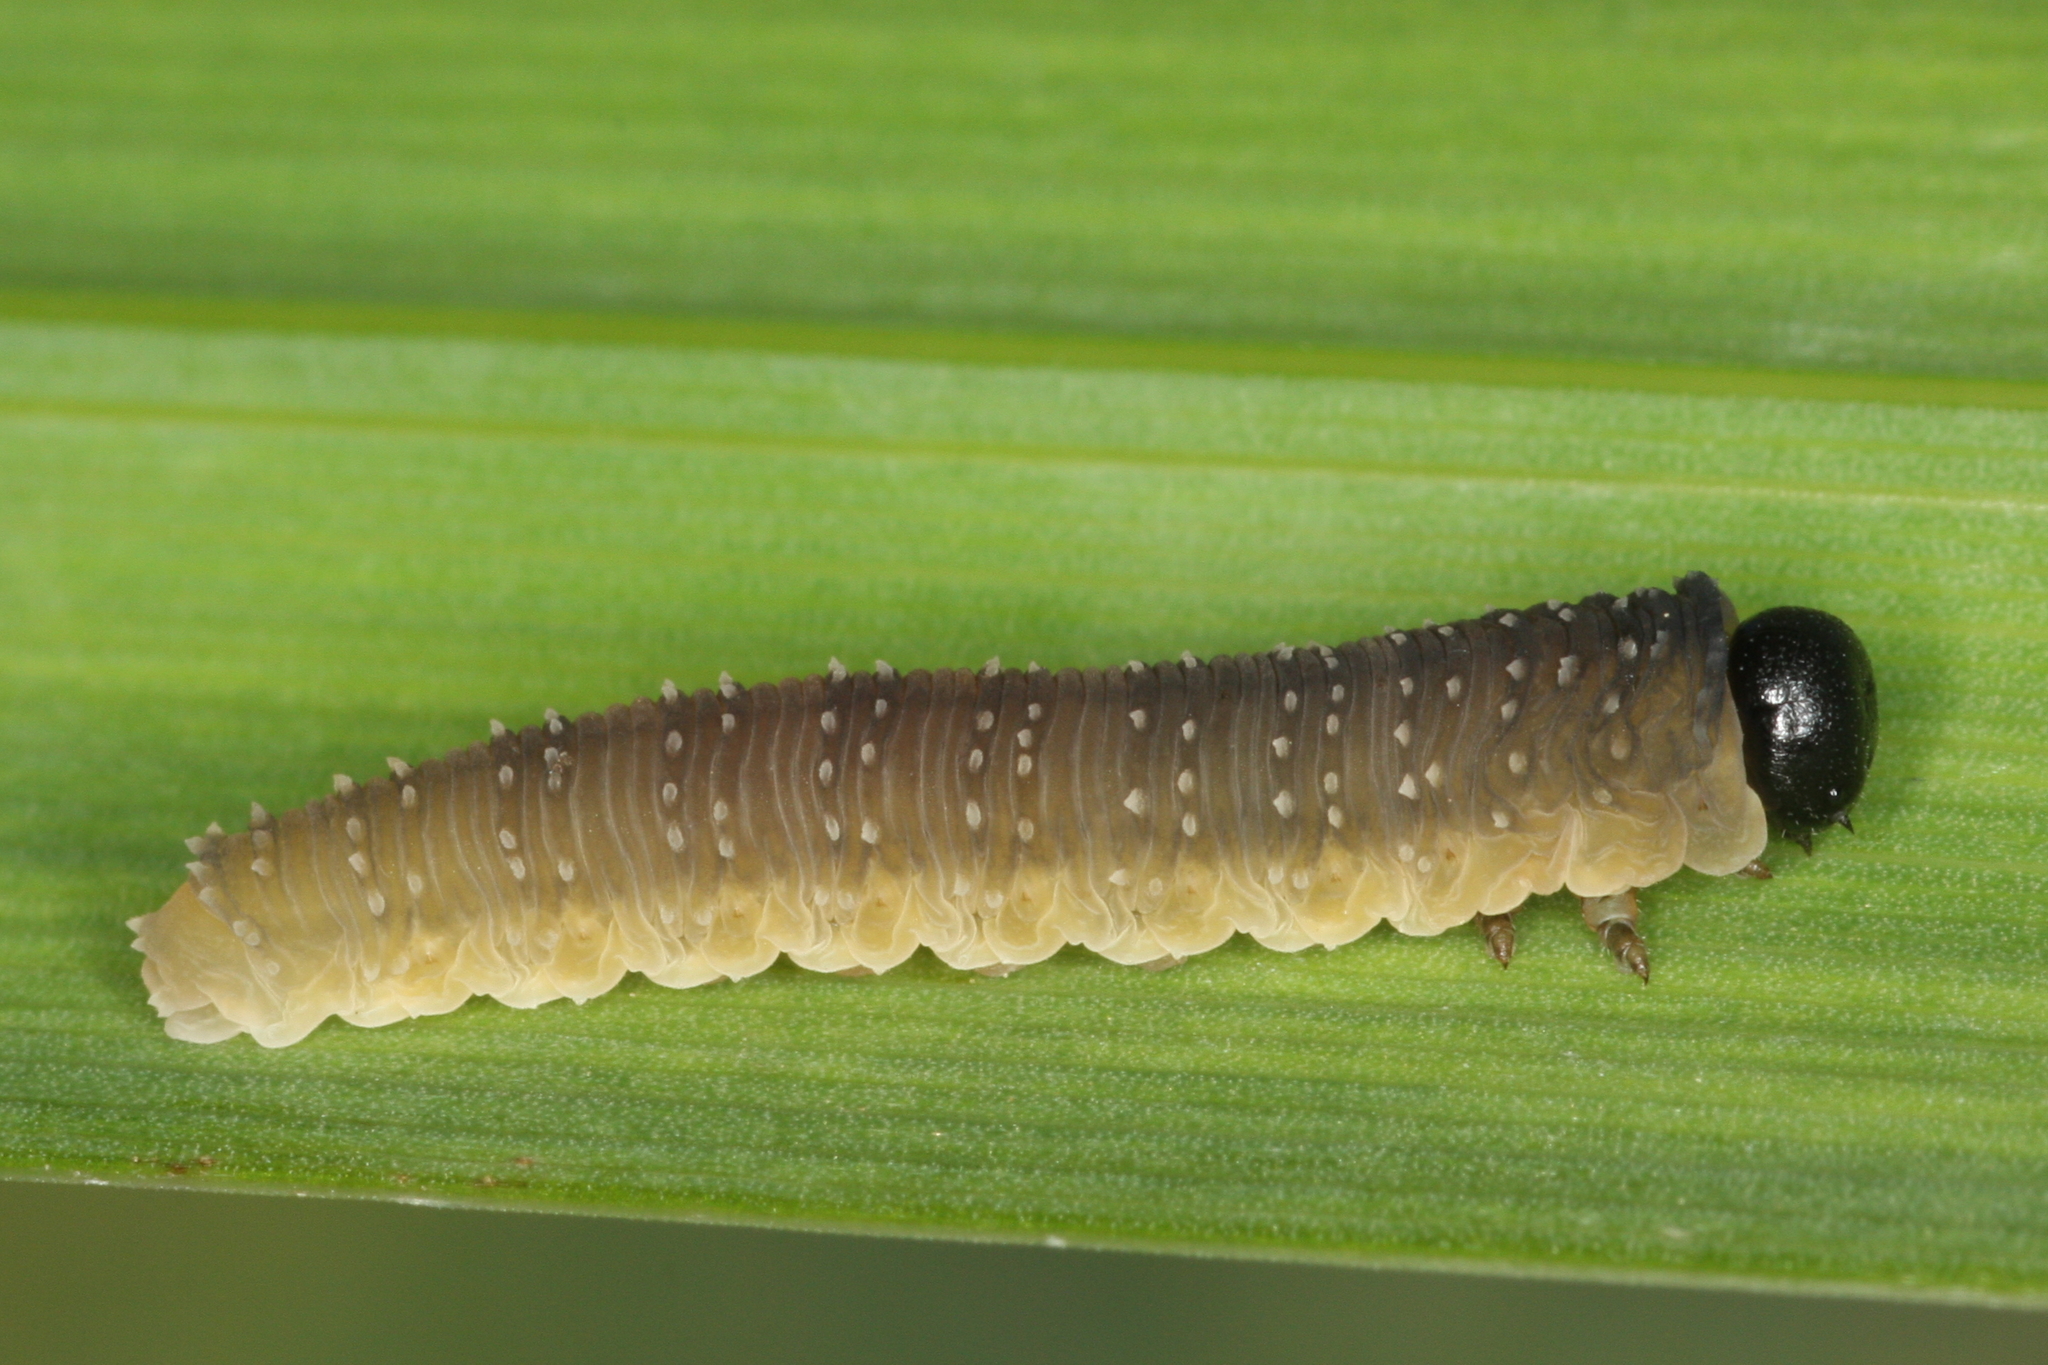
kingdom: Animalia
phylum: Arthropoda
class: Insecta
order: Hymenoptera
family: Tenthredinidae
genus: Rhadinoceraea
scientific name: Rhadinoceraea micans
